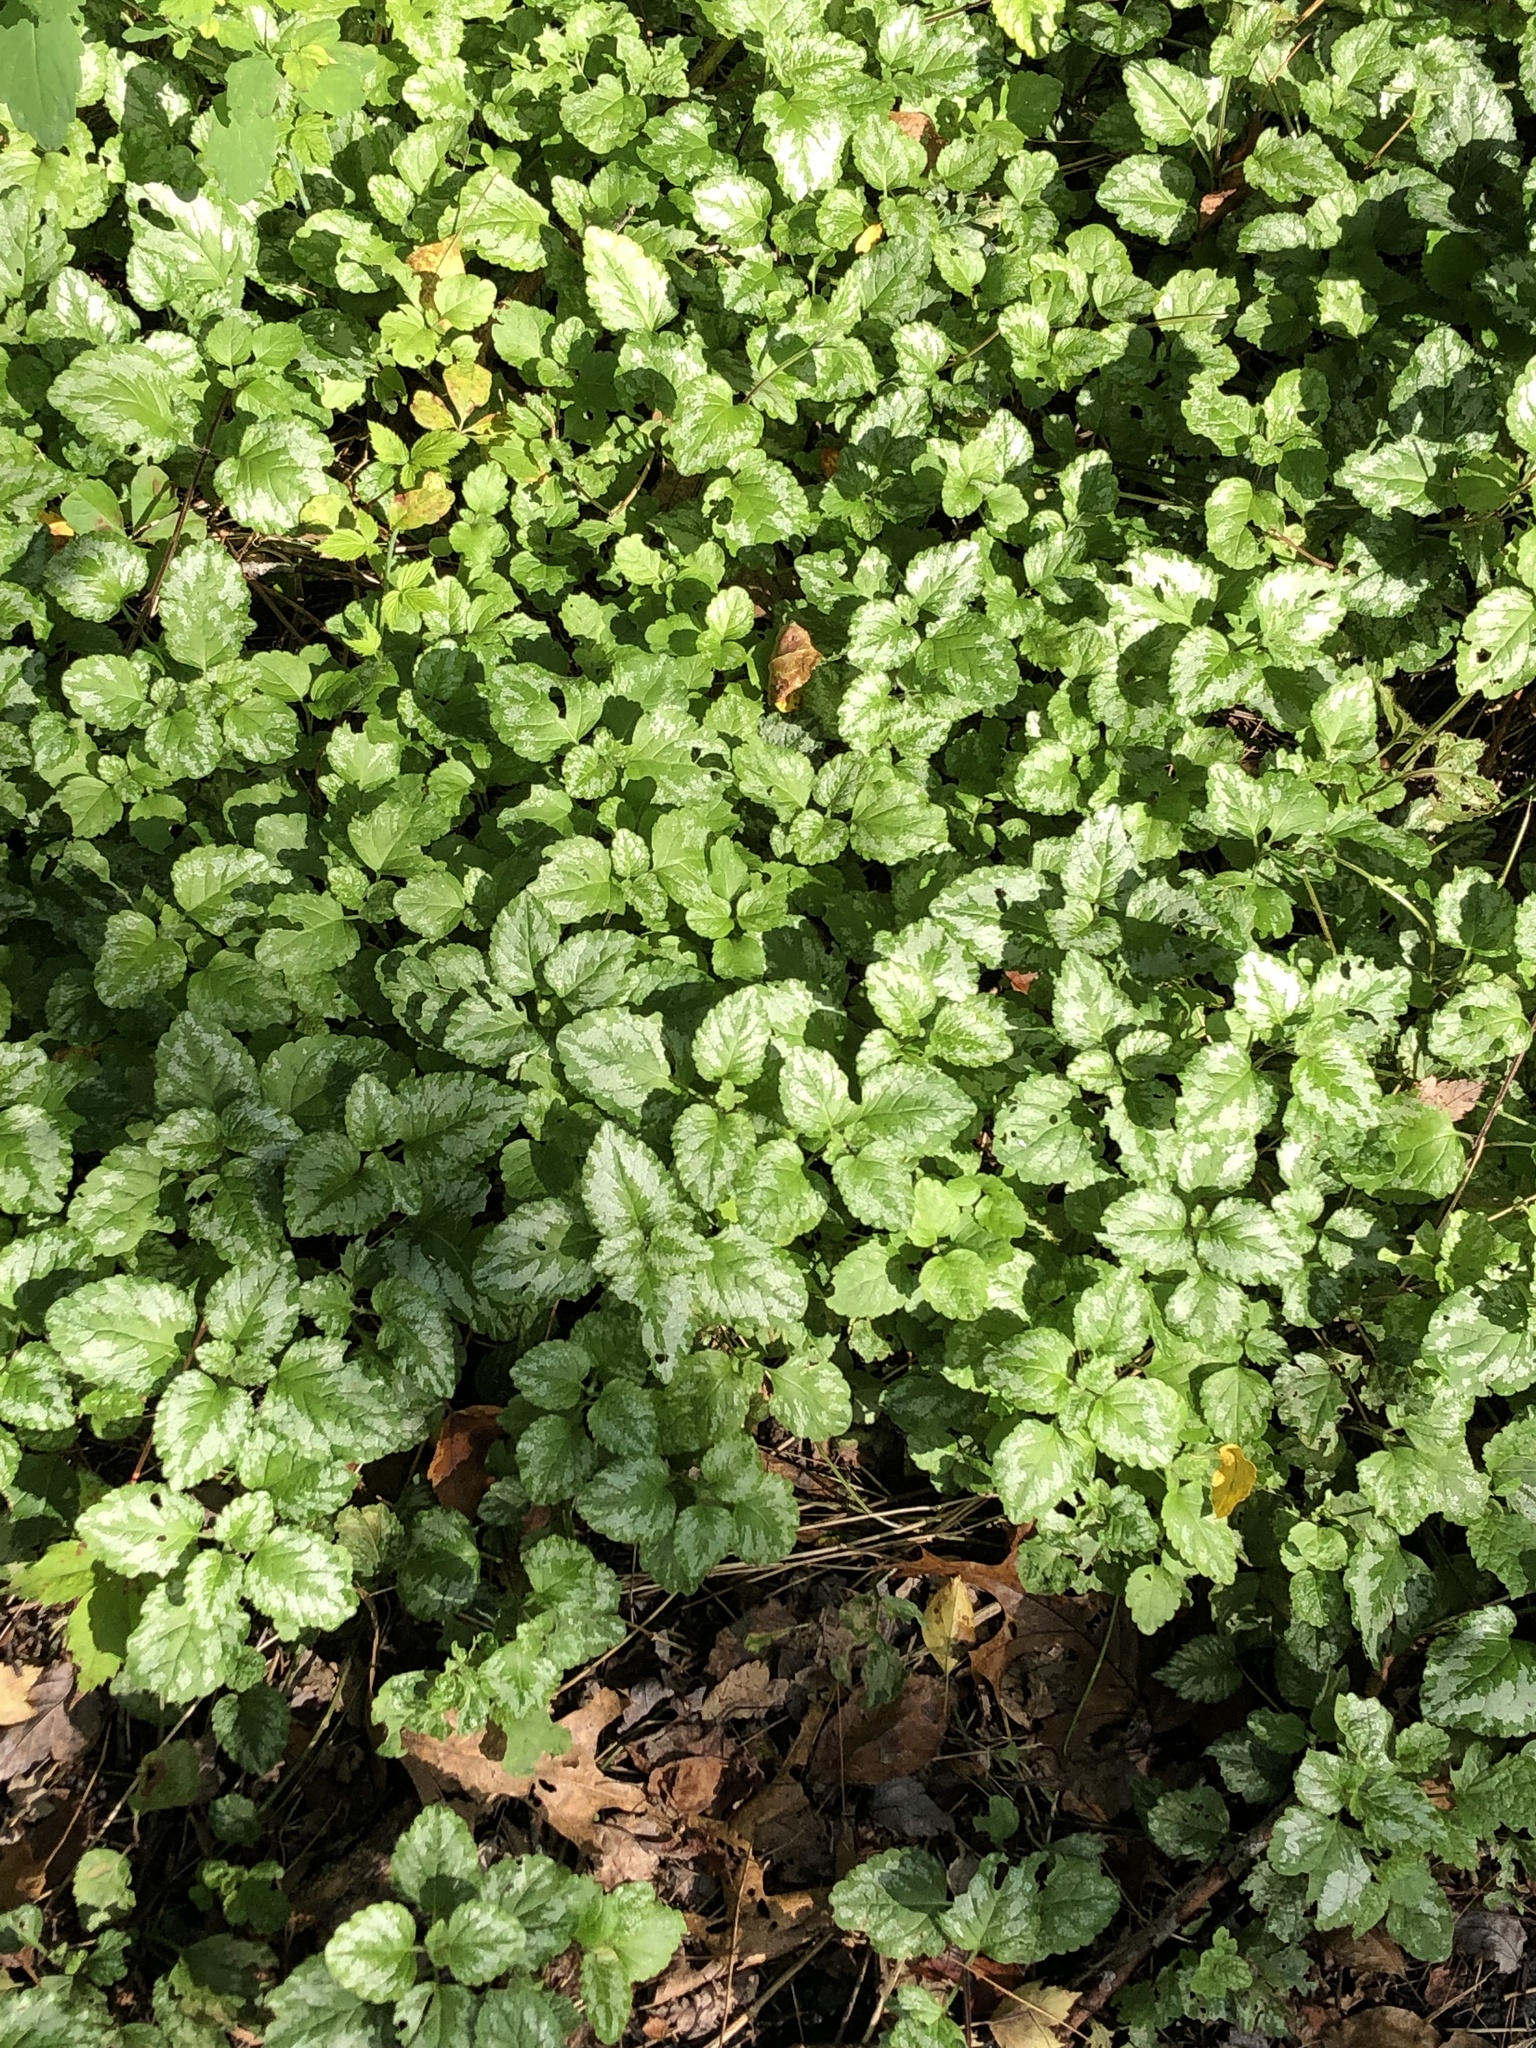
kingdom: Plantae
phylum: Tracheophyta
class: Magnoliopsida
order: Lamiales
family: Lamiaceae
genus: Lamium
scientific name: Lamium galeobdolon
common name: Yellow archangel
